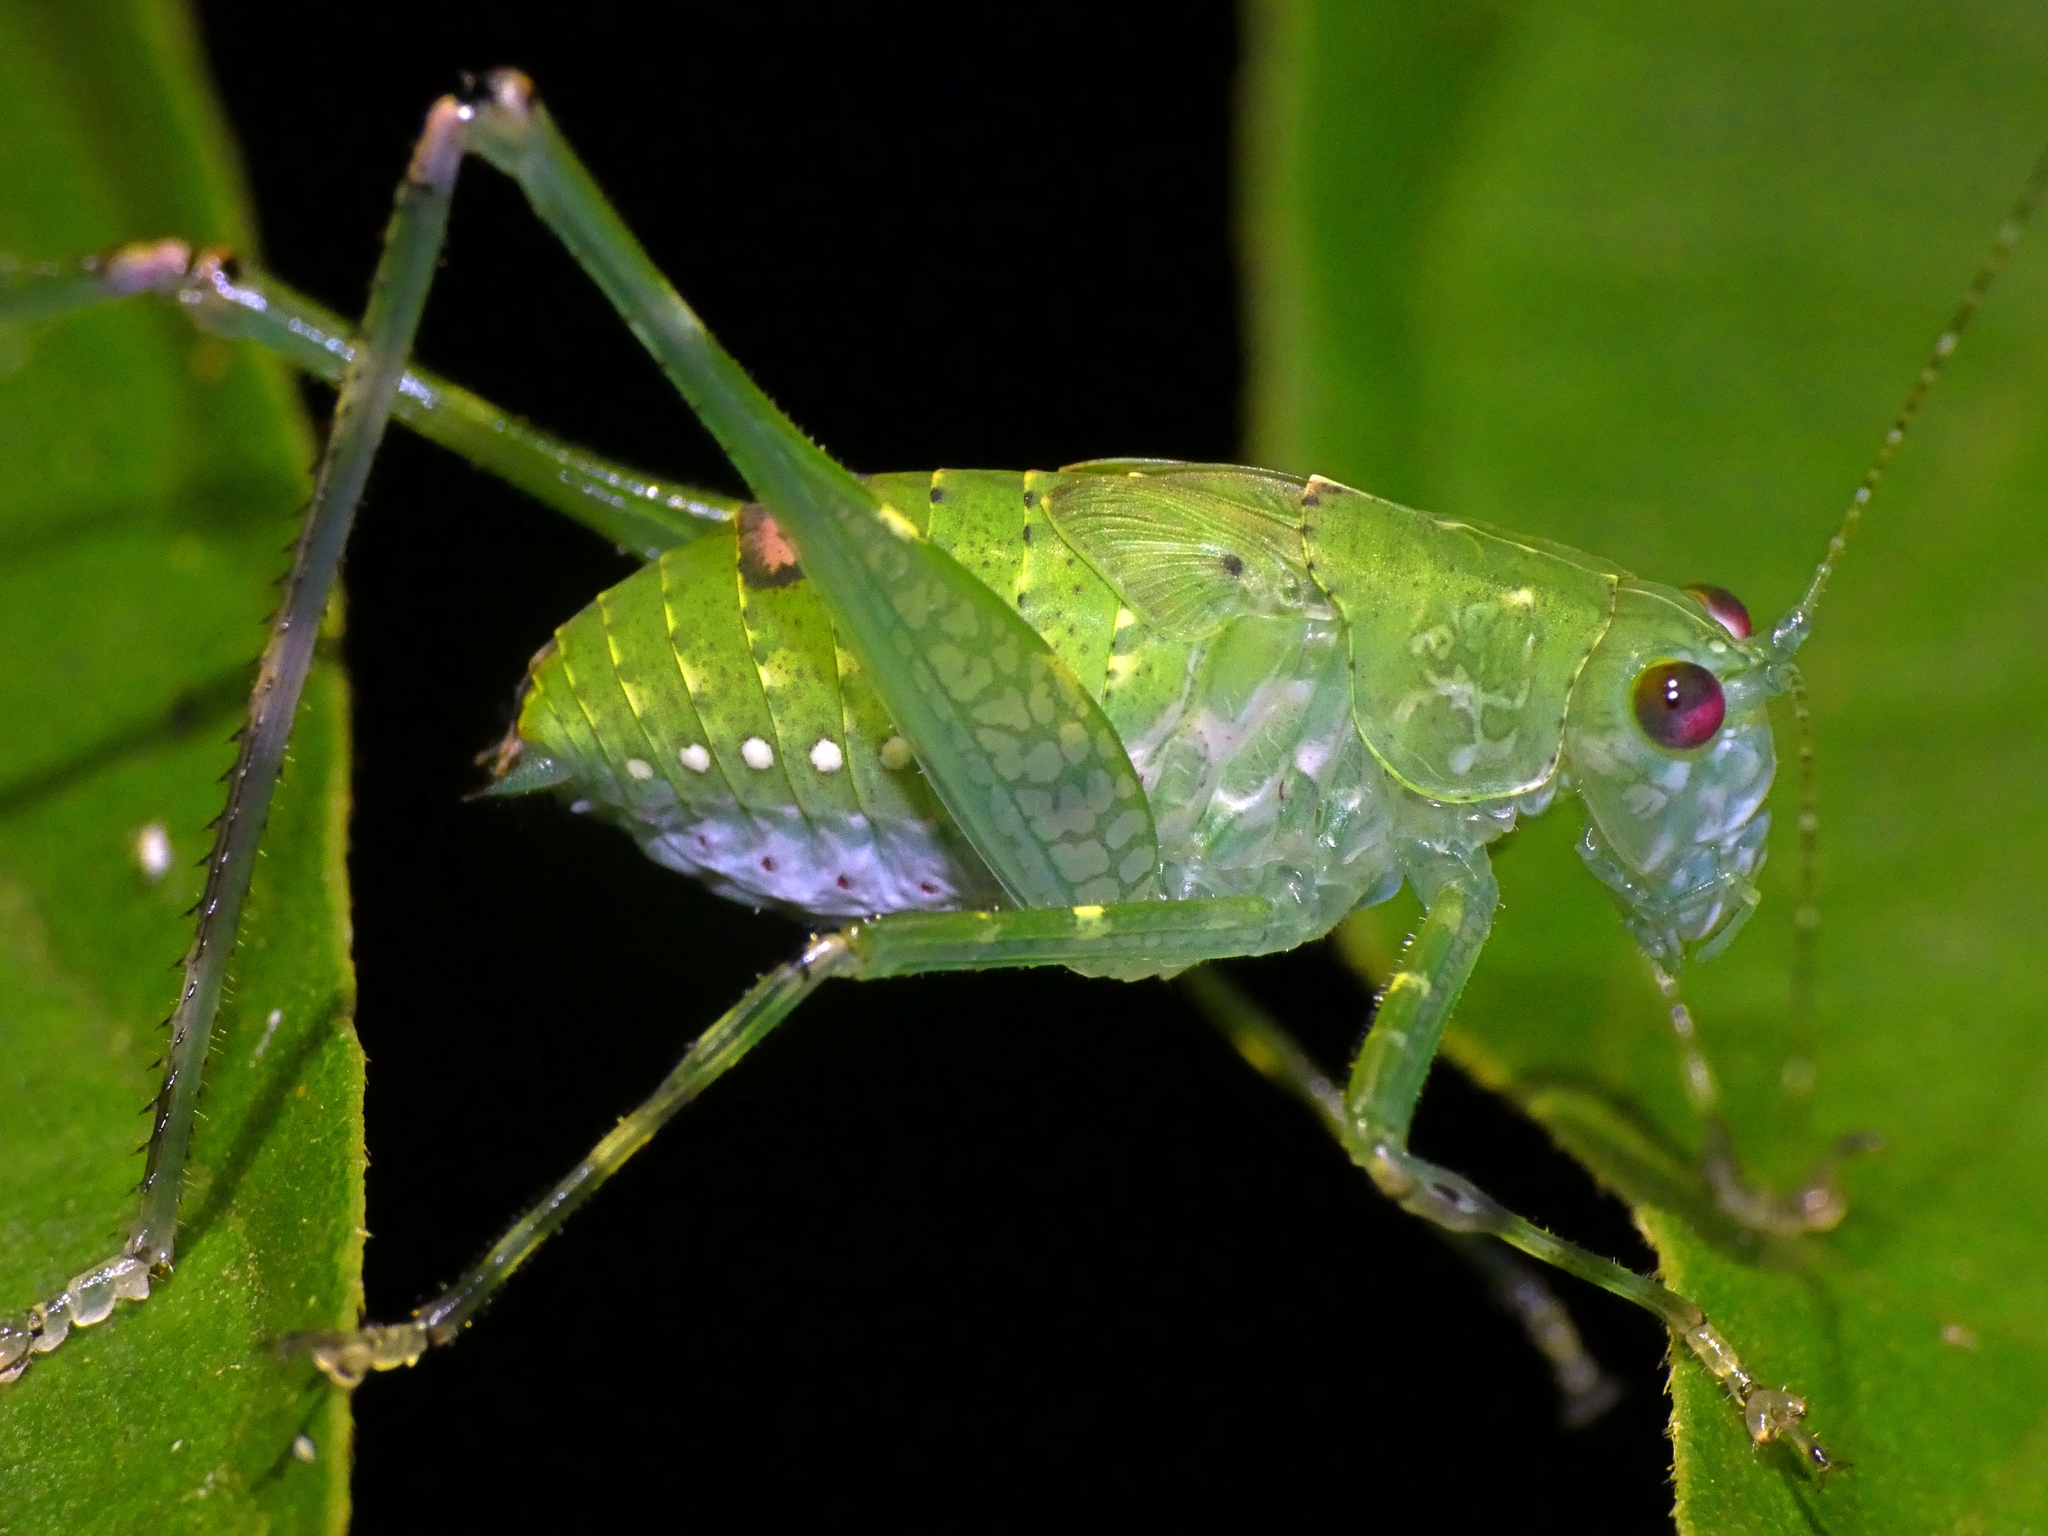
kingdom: Animalia
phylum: Arthropoda
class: Insecta
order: Orthoptera
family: Tettigoniidae
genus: Caedicia
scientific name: Caedicia webberi
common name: Webber's caedicia
